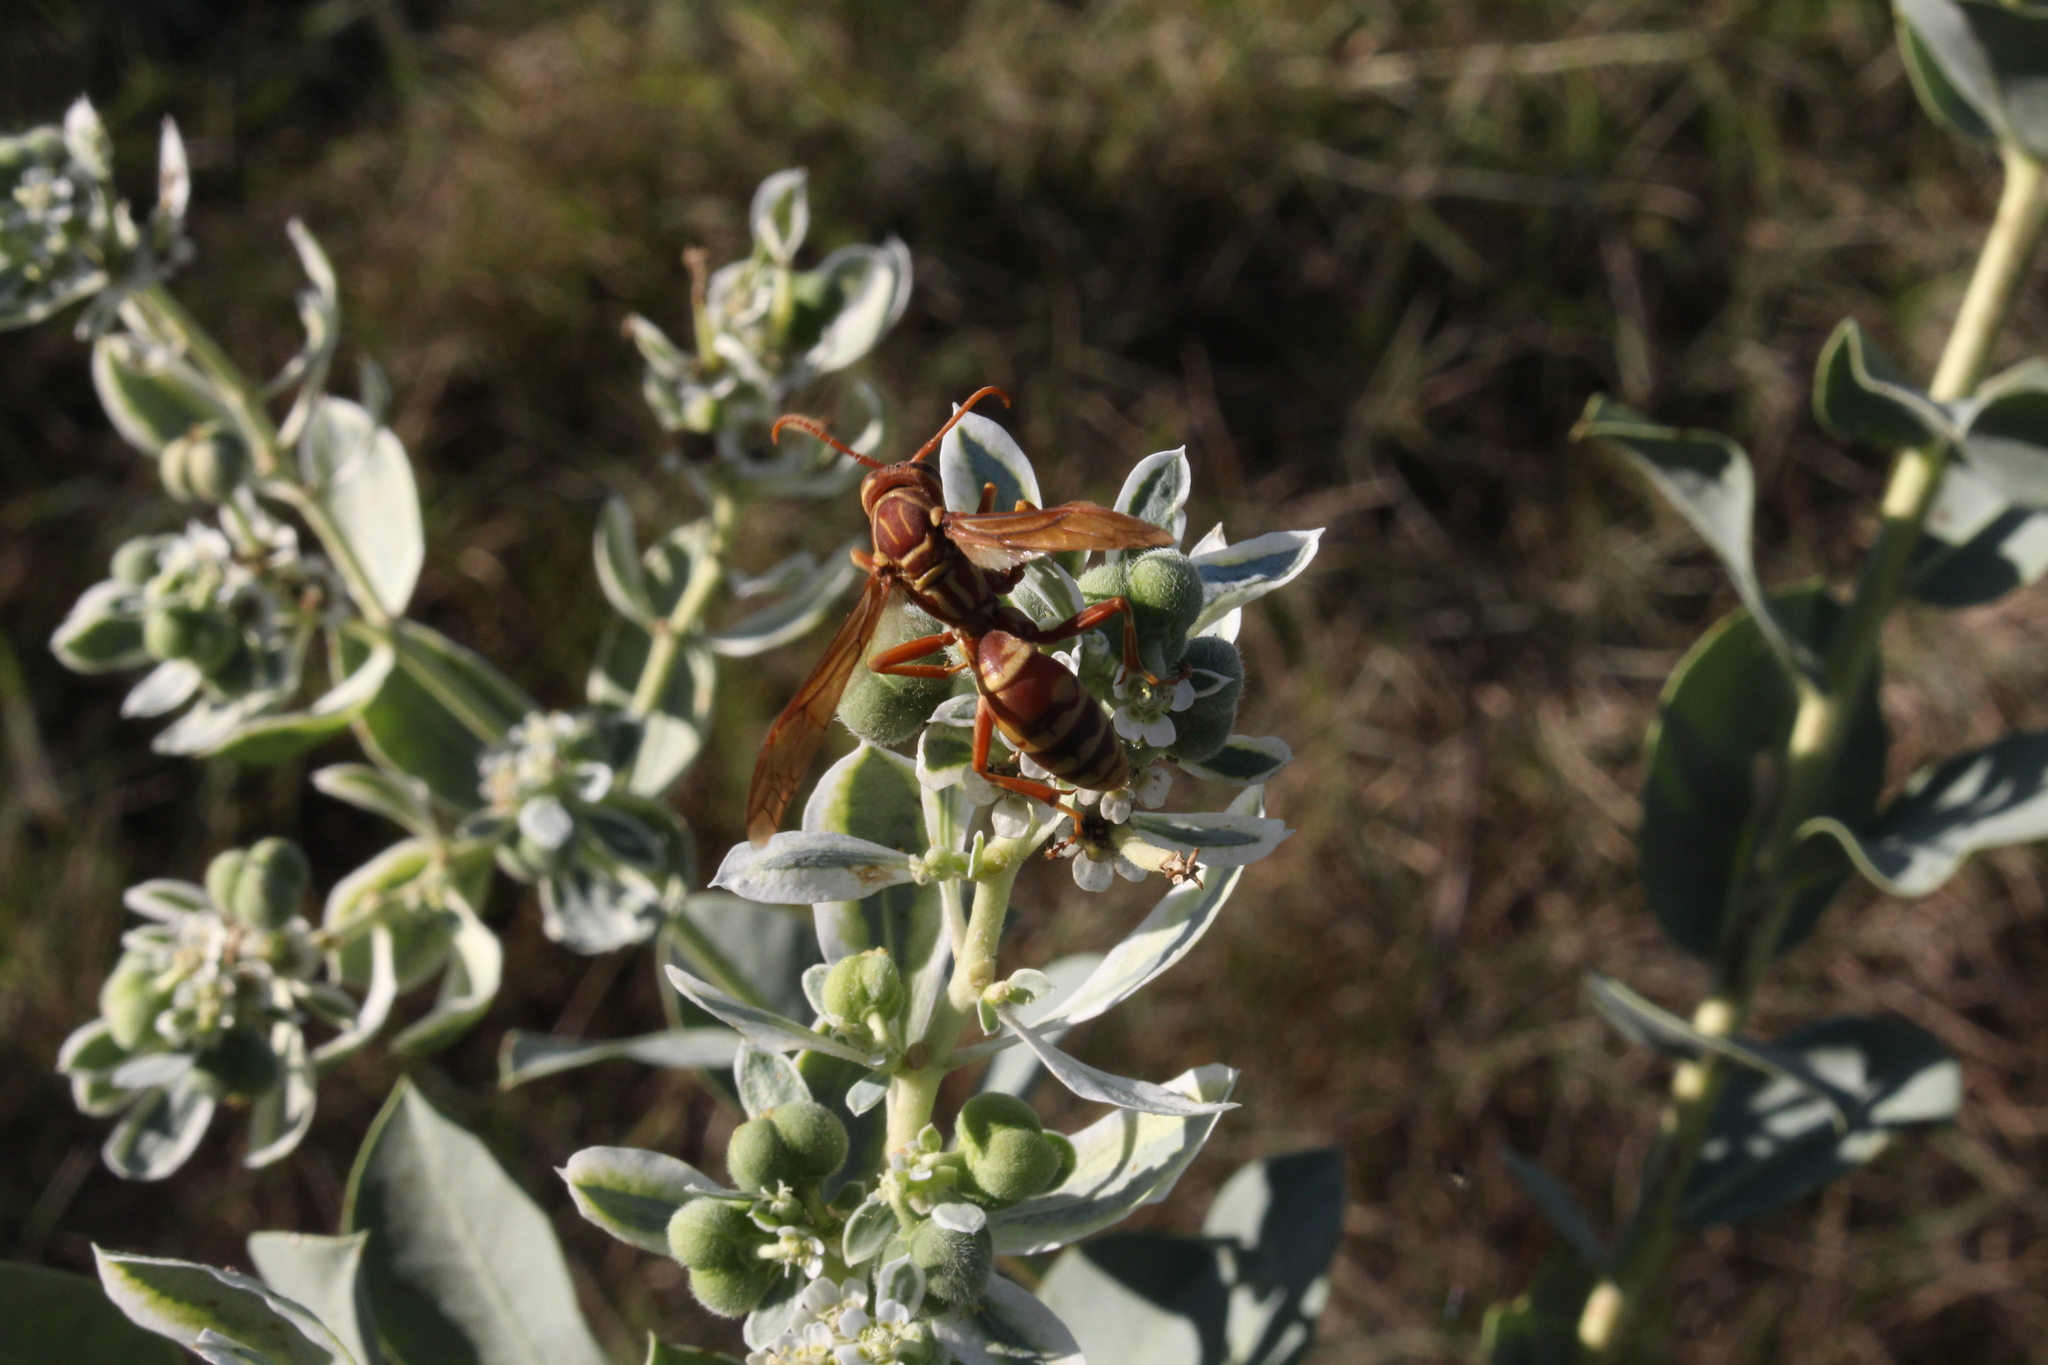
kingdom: Animalia
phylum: Arthropoda
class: Insecta
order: Hymenoptera
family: Eumenidae
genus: Polistes
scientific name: Polistes apachus
